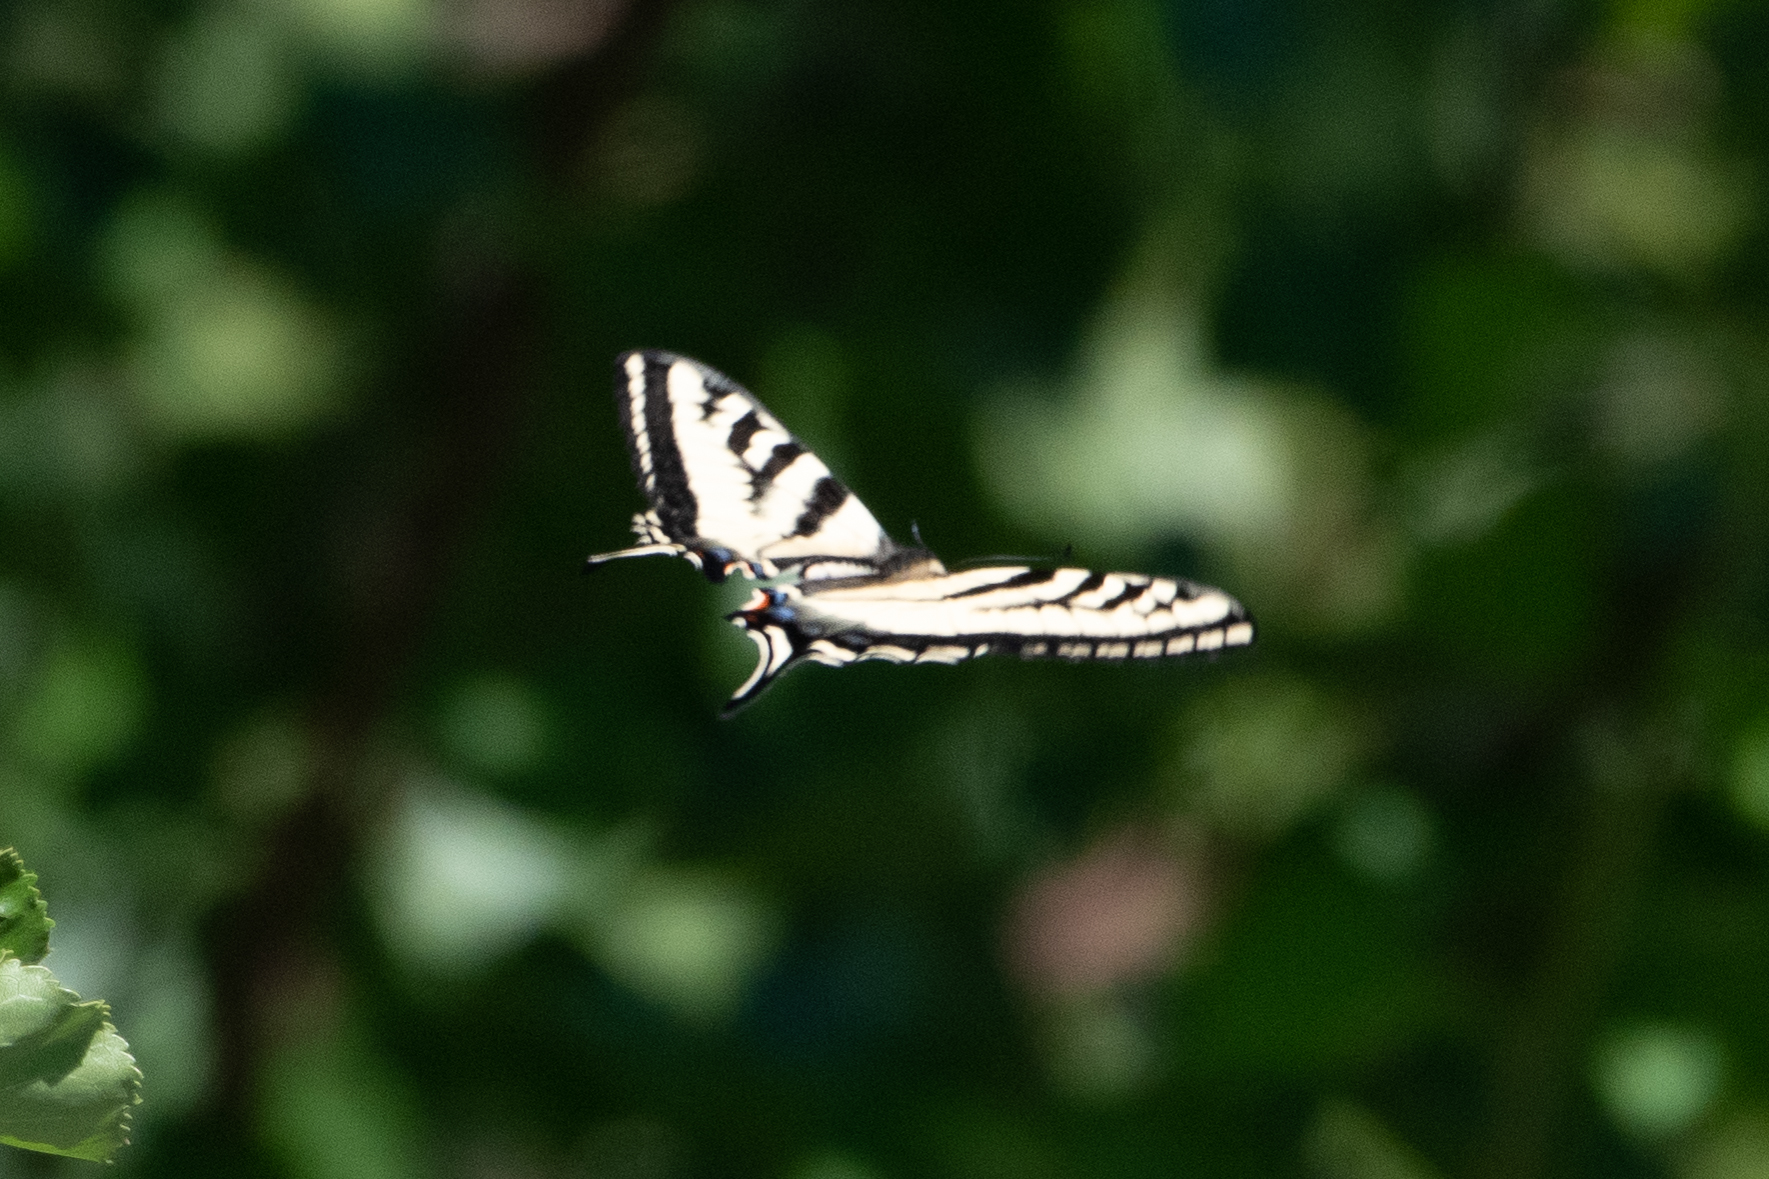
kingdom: Animalia
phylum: Arthropoda
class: Insecta
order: Lepidoptera
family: Papilionidae
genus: Papilio
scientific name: Papilio rutulus
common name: Western tiger swallowtail
